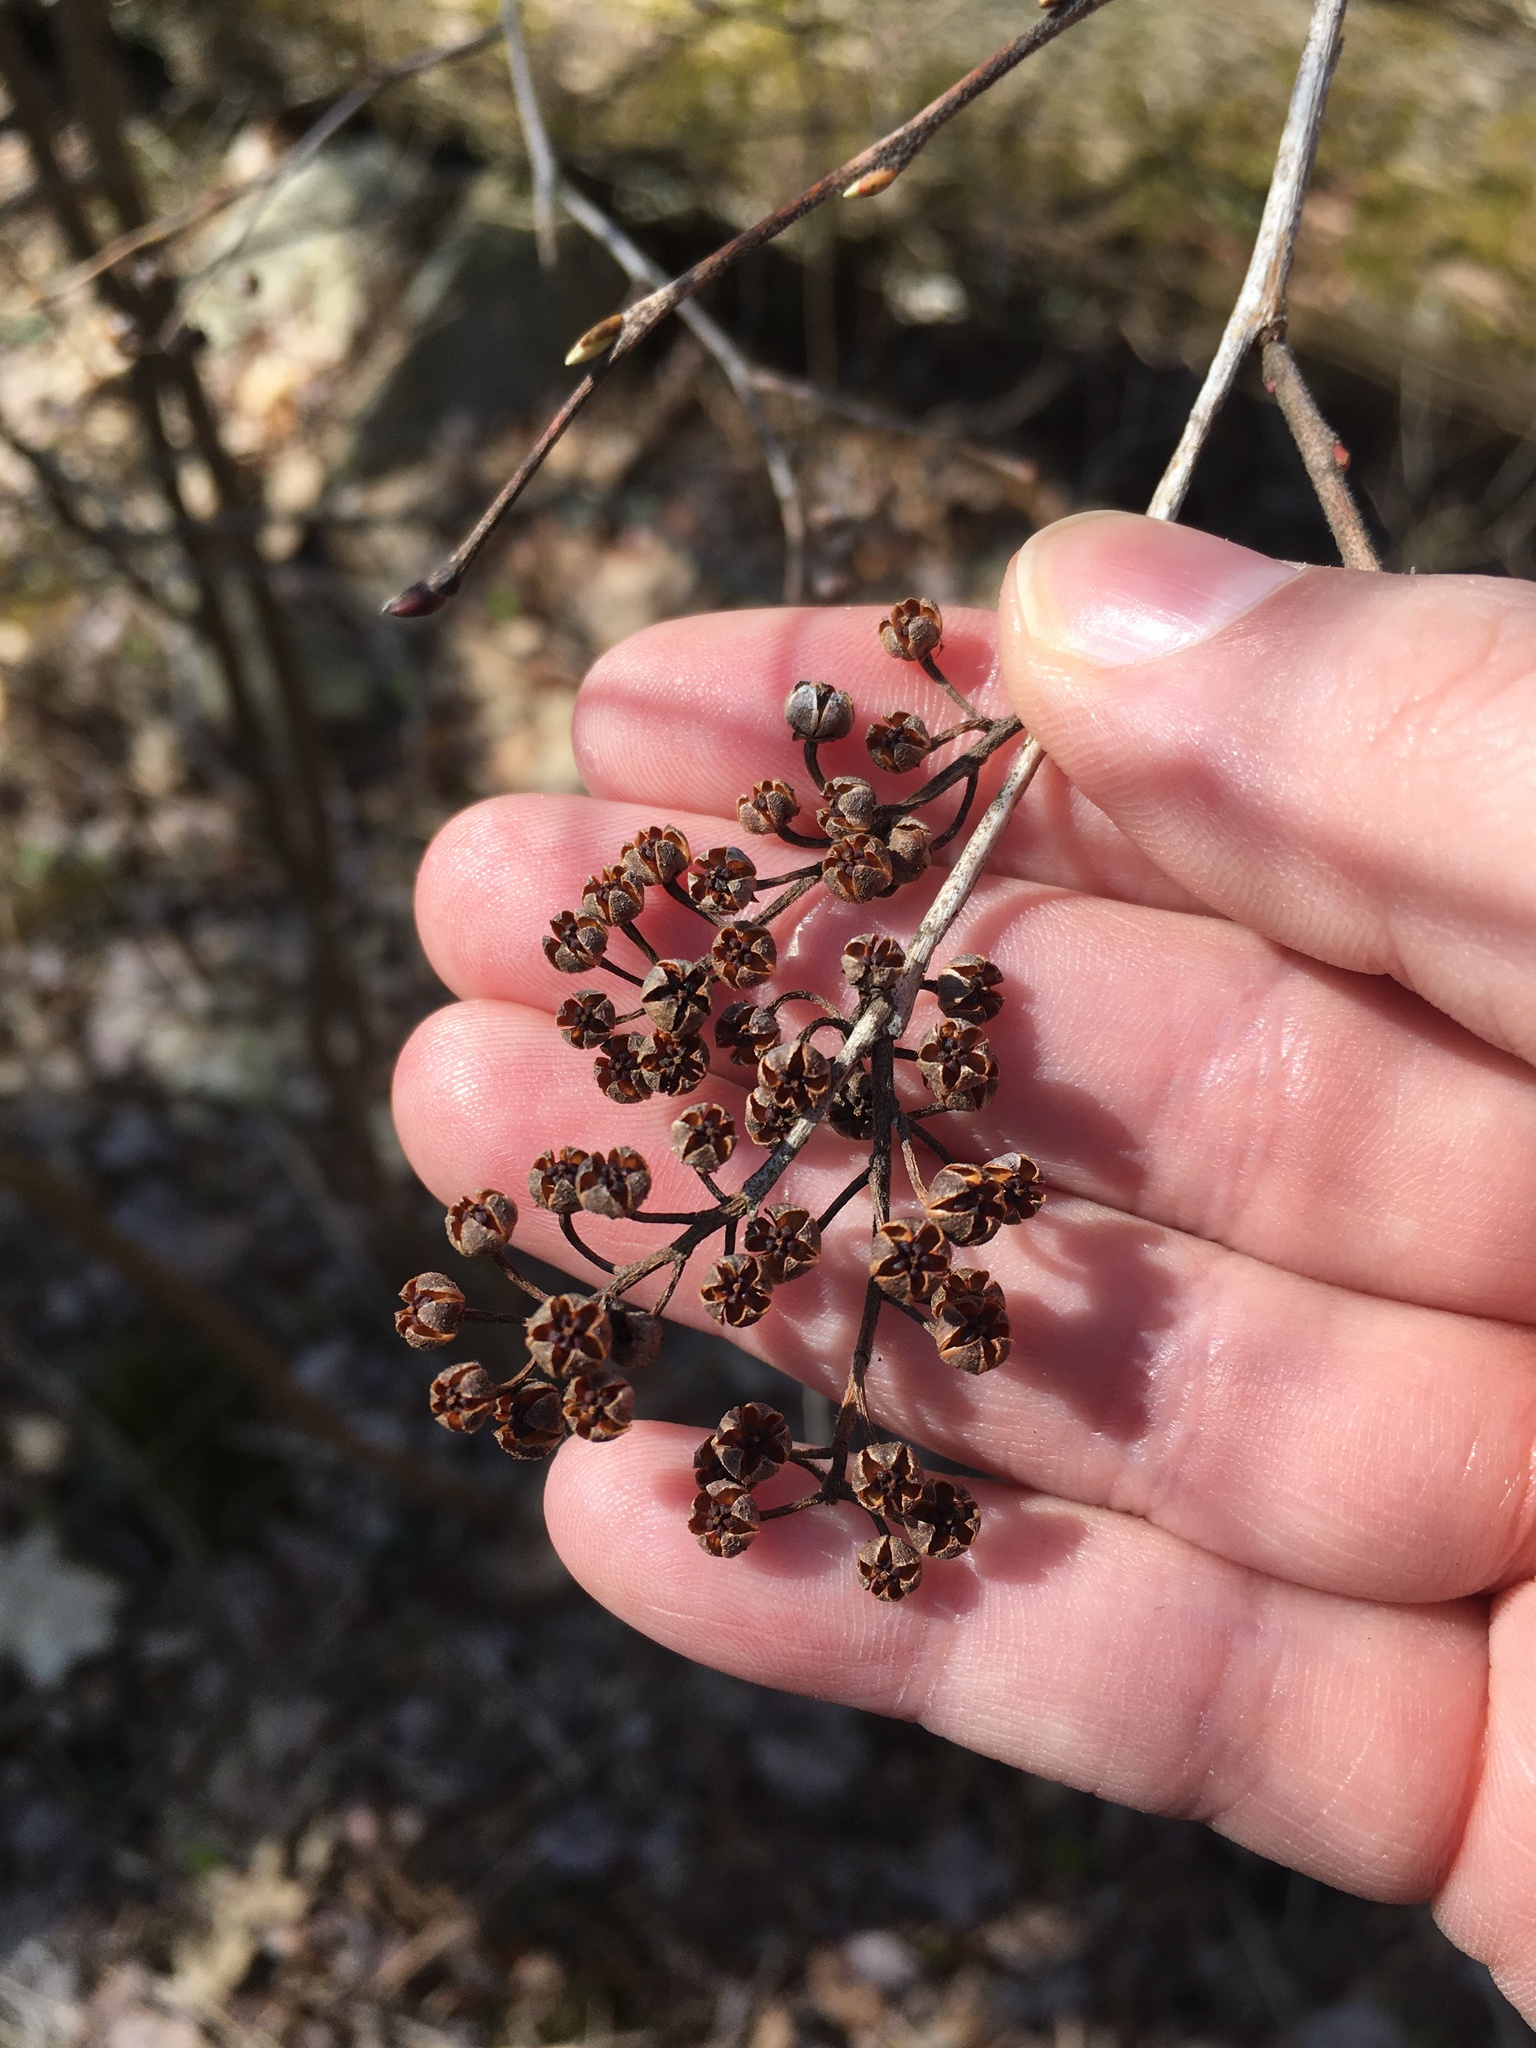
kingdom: Plantae
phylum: Tracheophyta
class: Magnoliopsida
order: Ericales
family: Ericaceae
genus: Lyonia
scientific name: Lyonia ligustrina
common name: Maleberry
